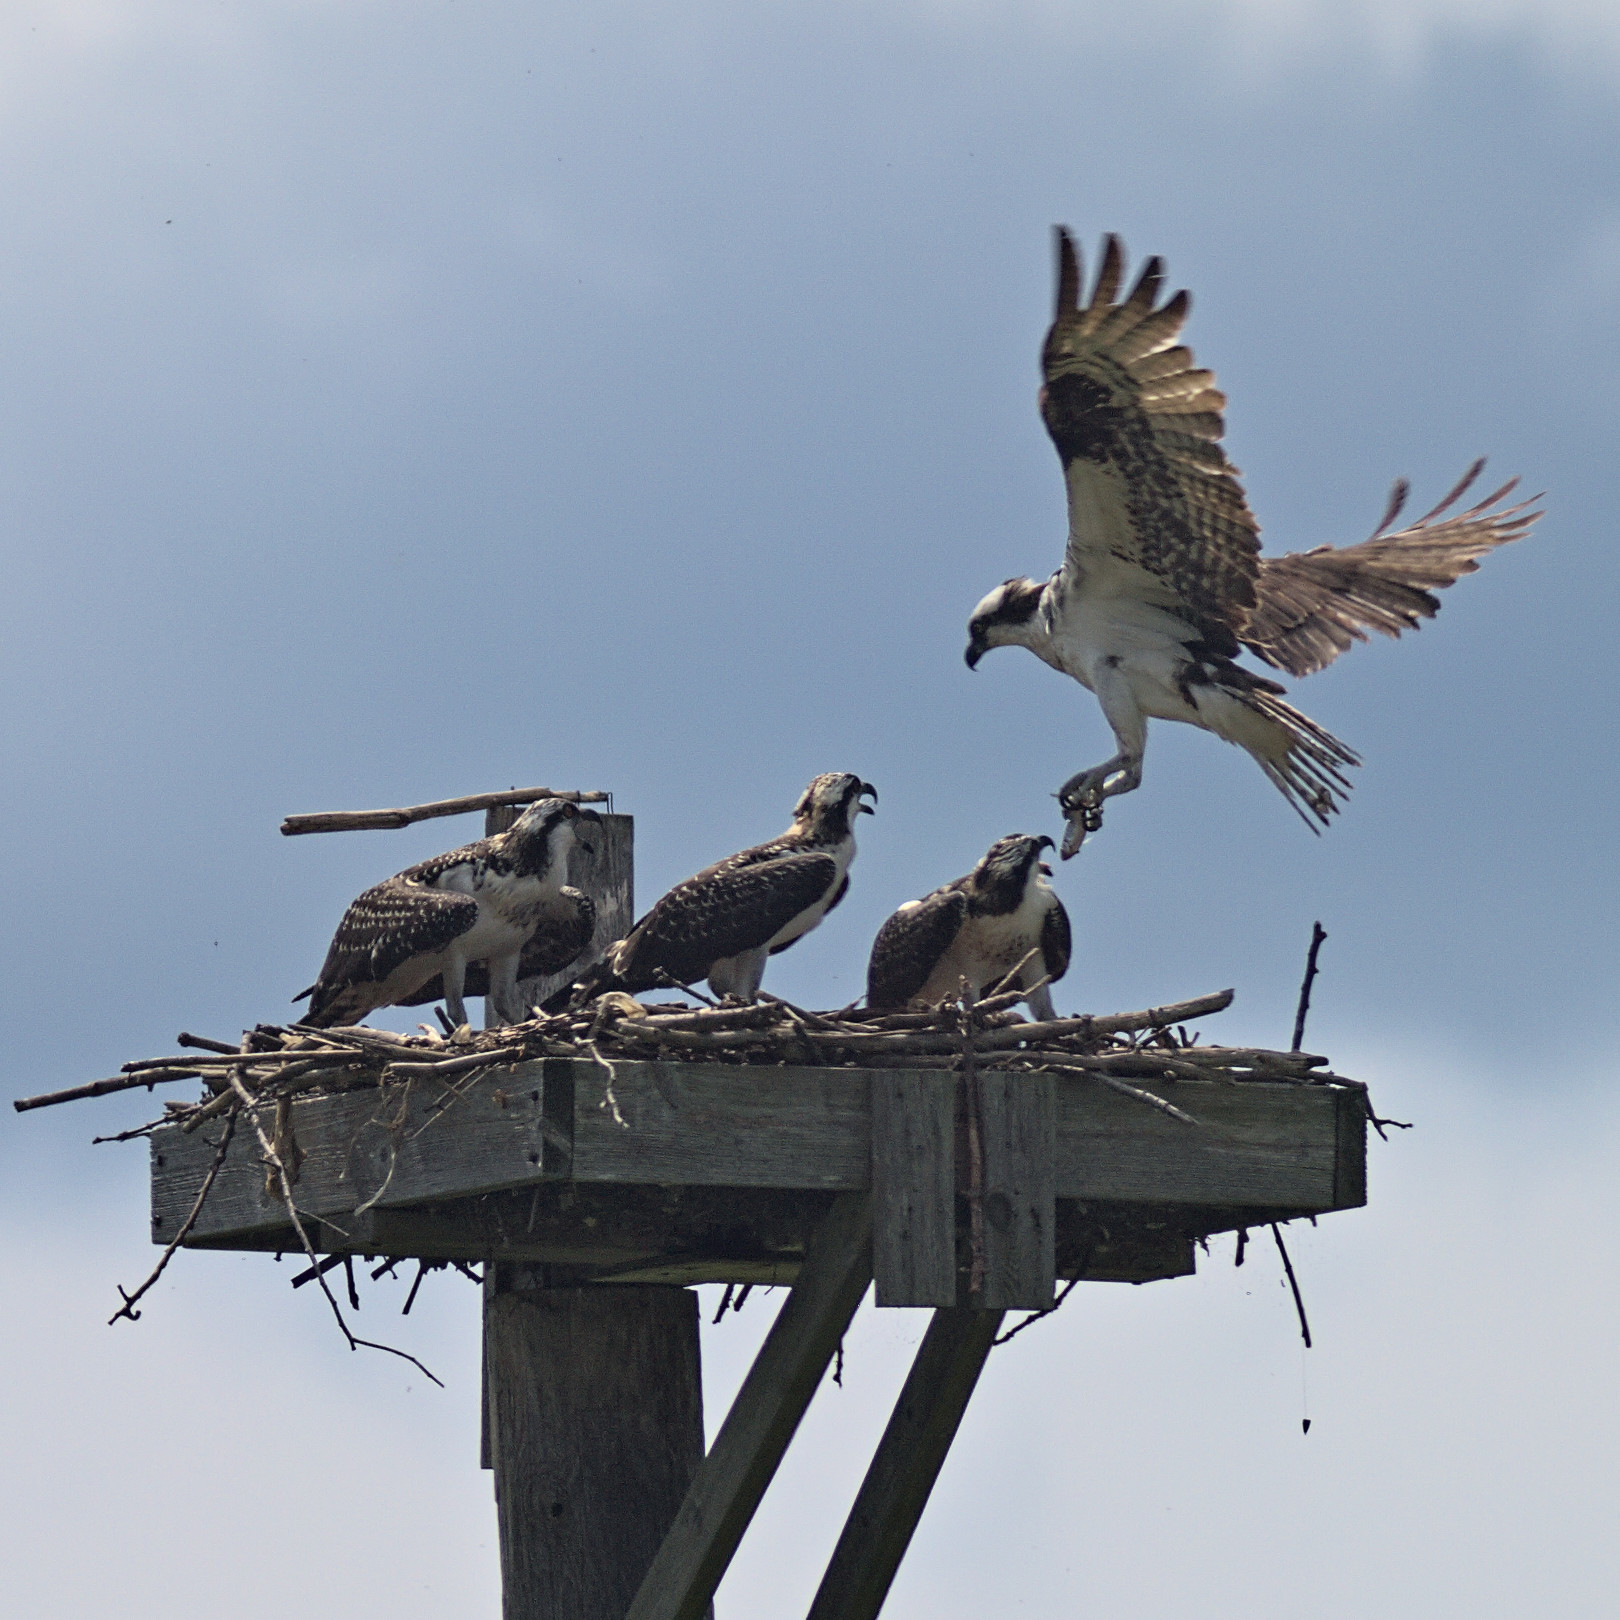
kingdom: Animalia
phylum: Chordata
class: Aves
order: Accipitriformes
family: Pandionidae
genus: Pandion
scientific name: Pandion haliaetus
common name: Osprey
